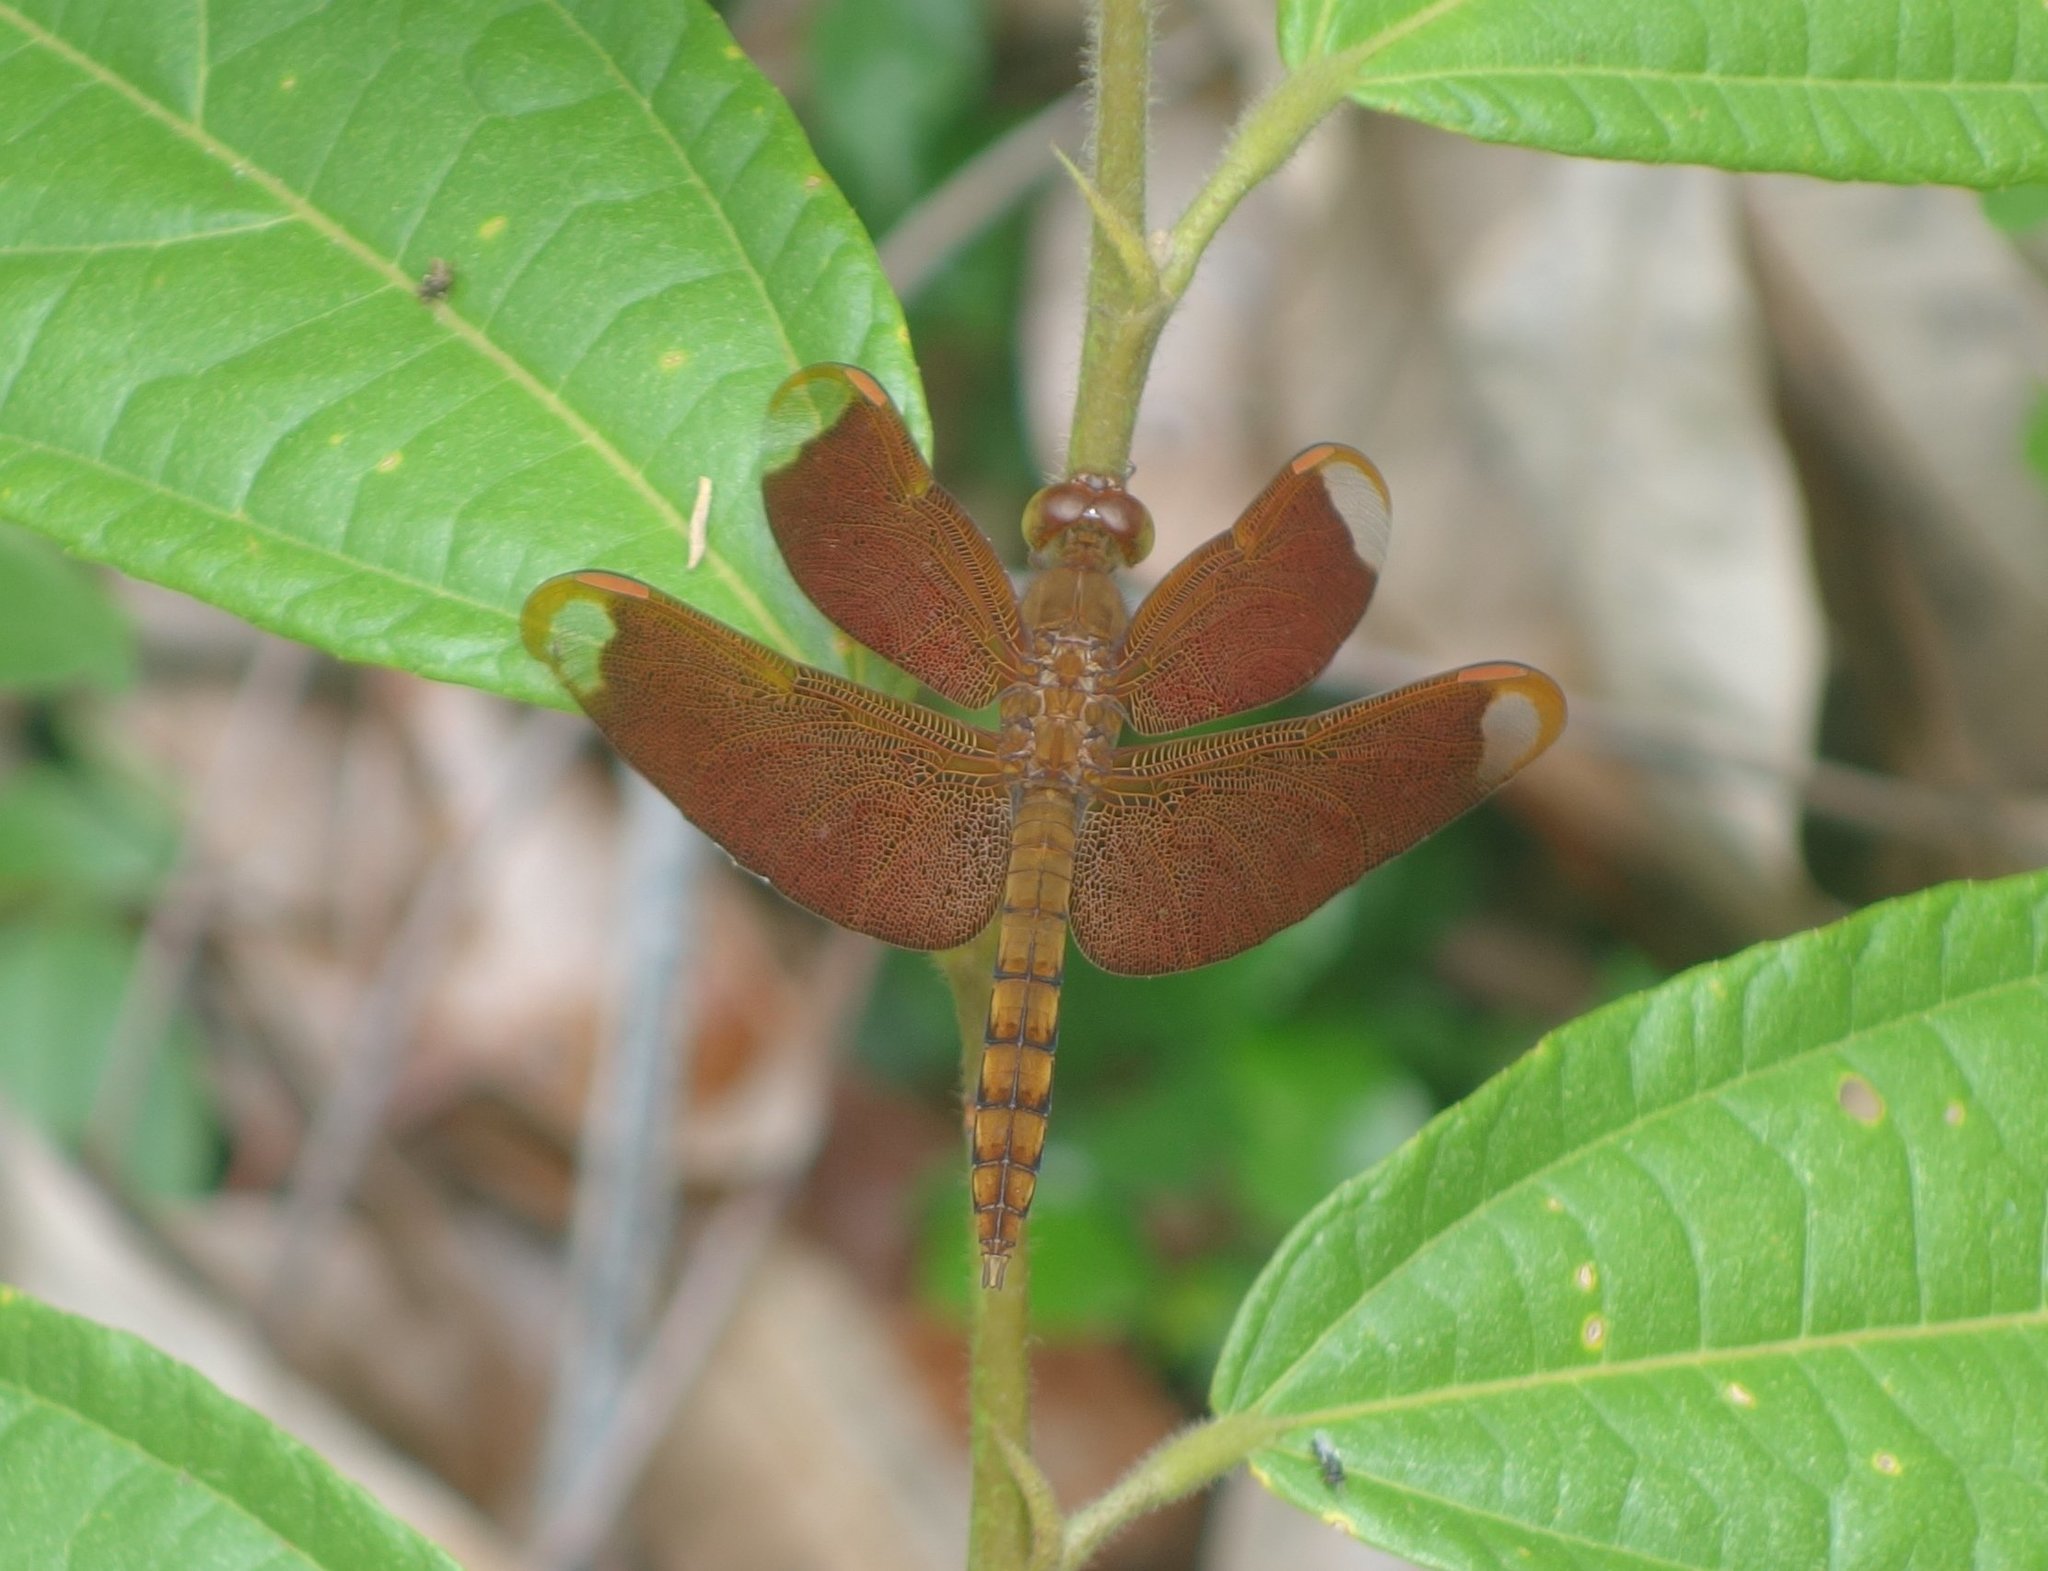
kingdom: Animalia
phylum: Arthropoda
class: Insecta
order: Odonata
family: Libellulidae
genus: Neurothemis
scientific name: Neurothemis fulvia
